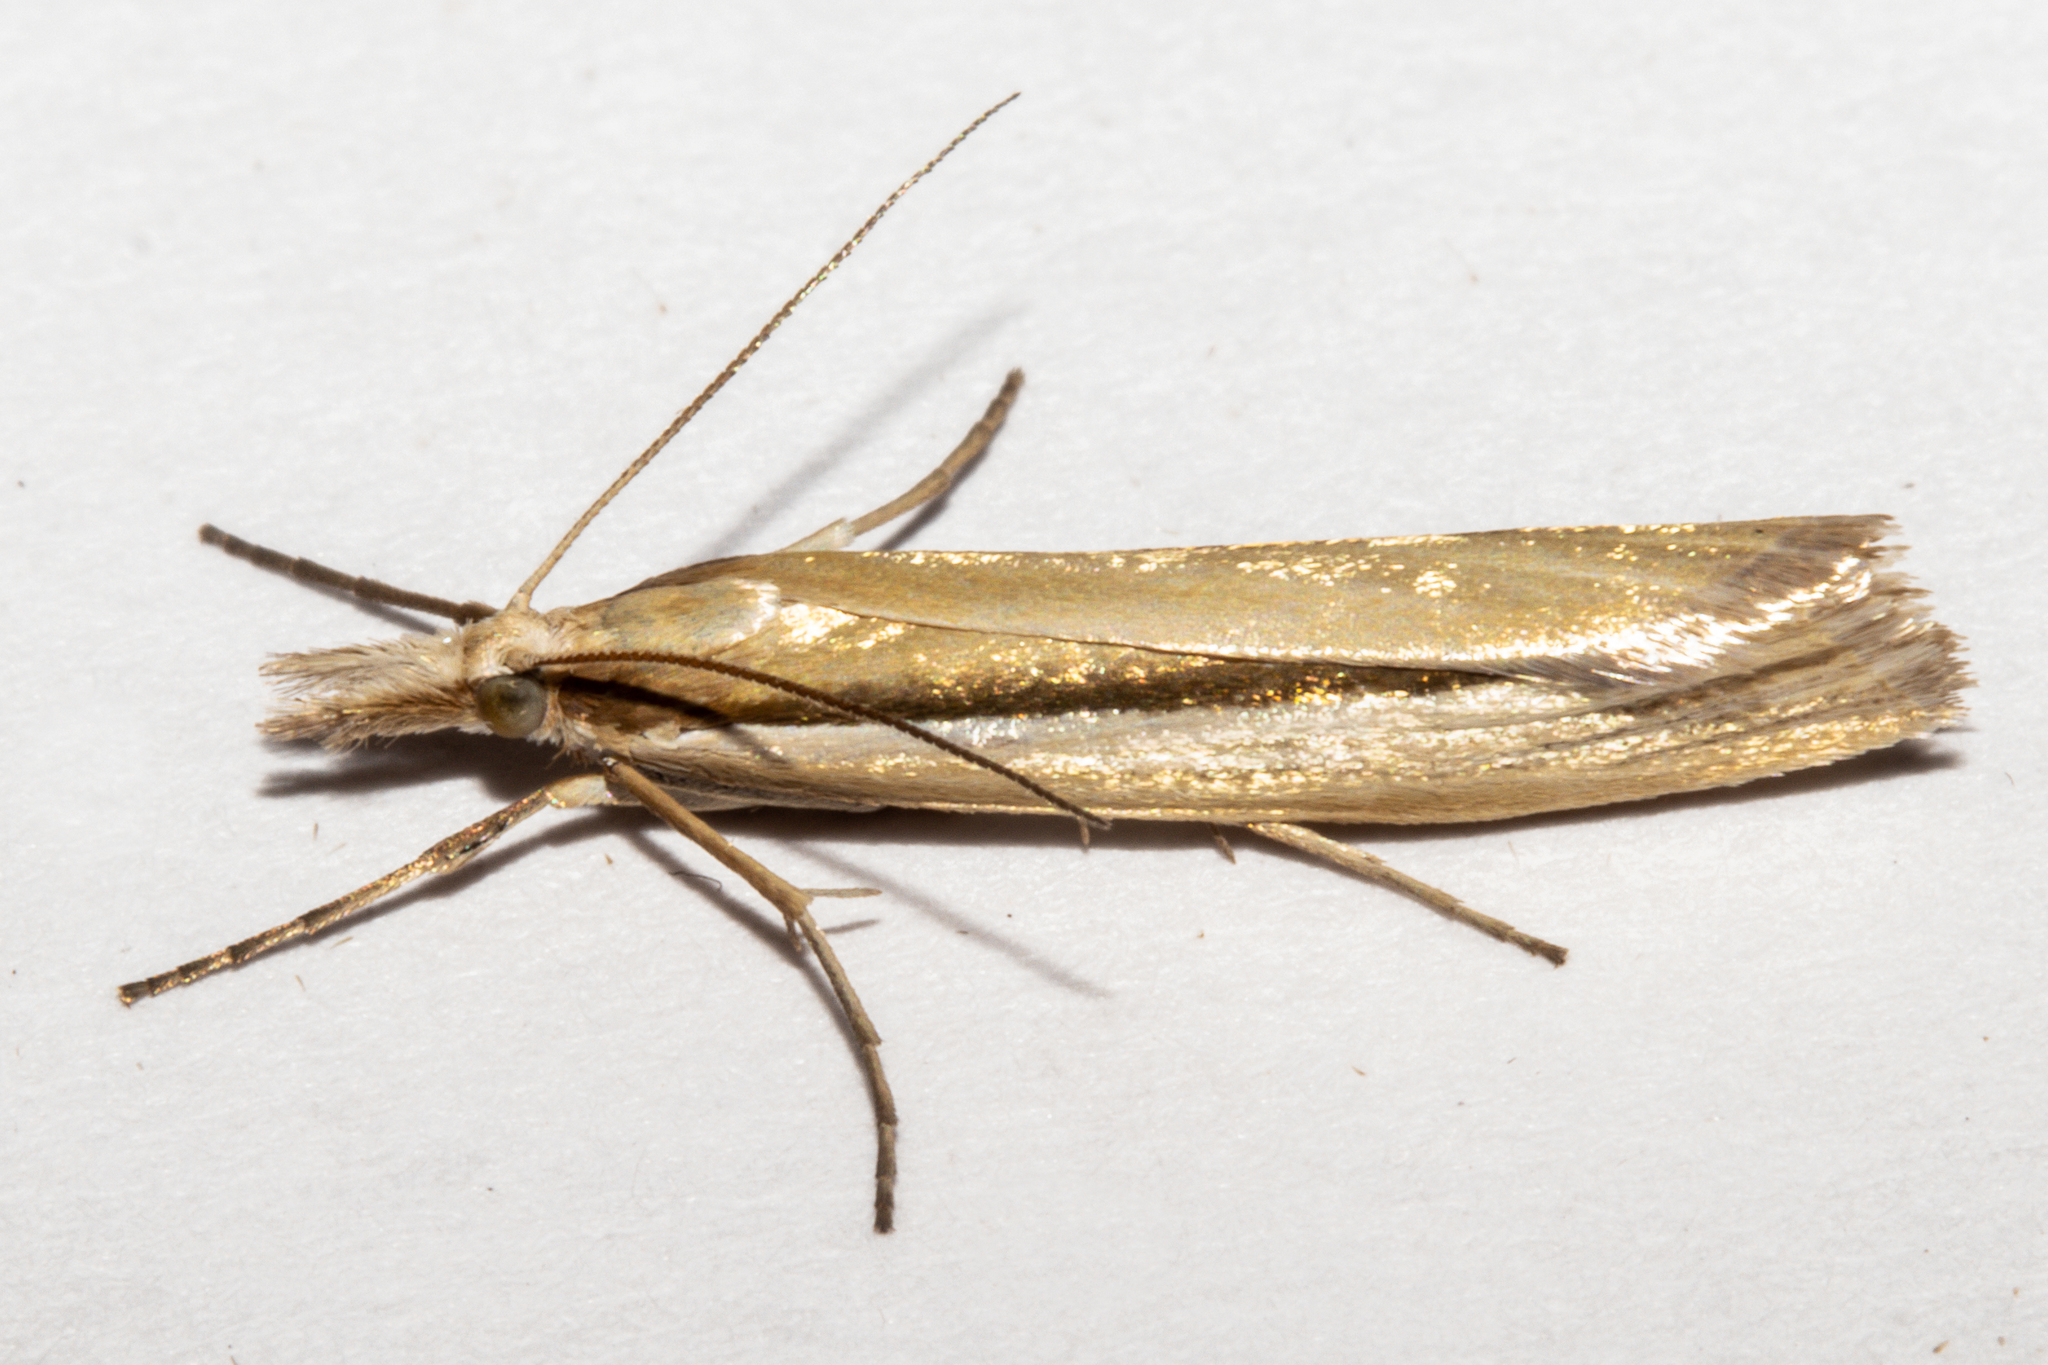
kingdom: Animalia
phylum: Arthropoda
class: Insecta
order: Lepidoptera
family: Crambidae
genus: Orocrambus
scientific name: Orocrambus ramosellus
